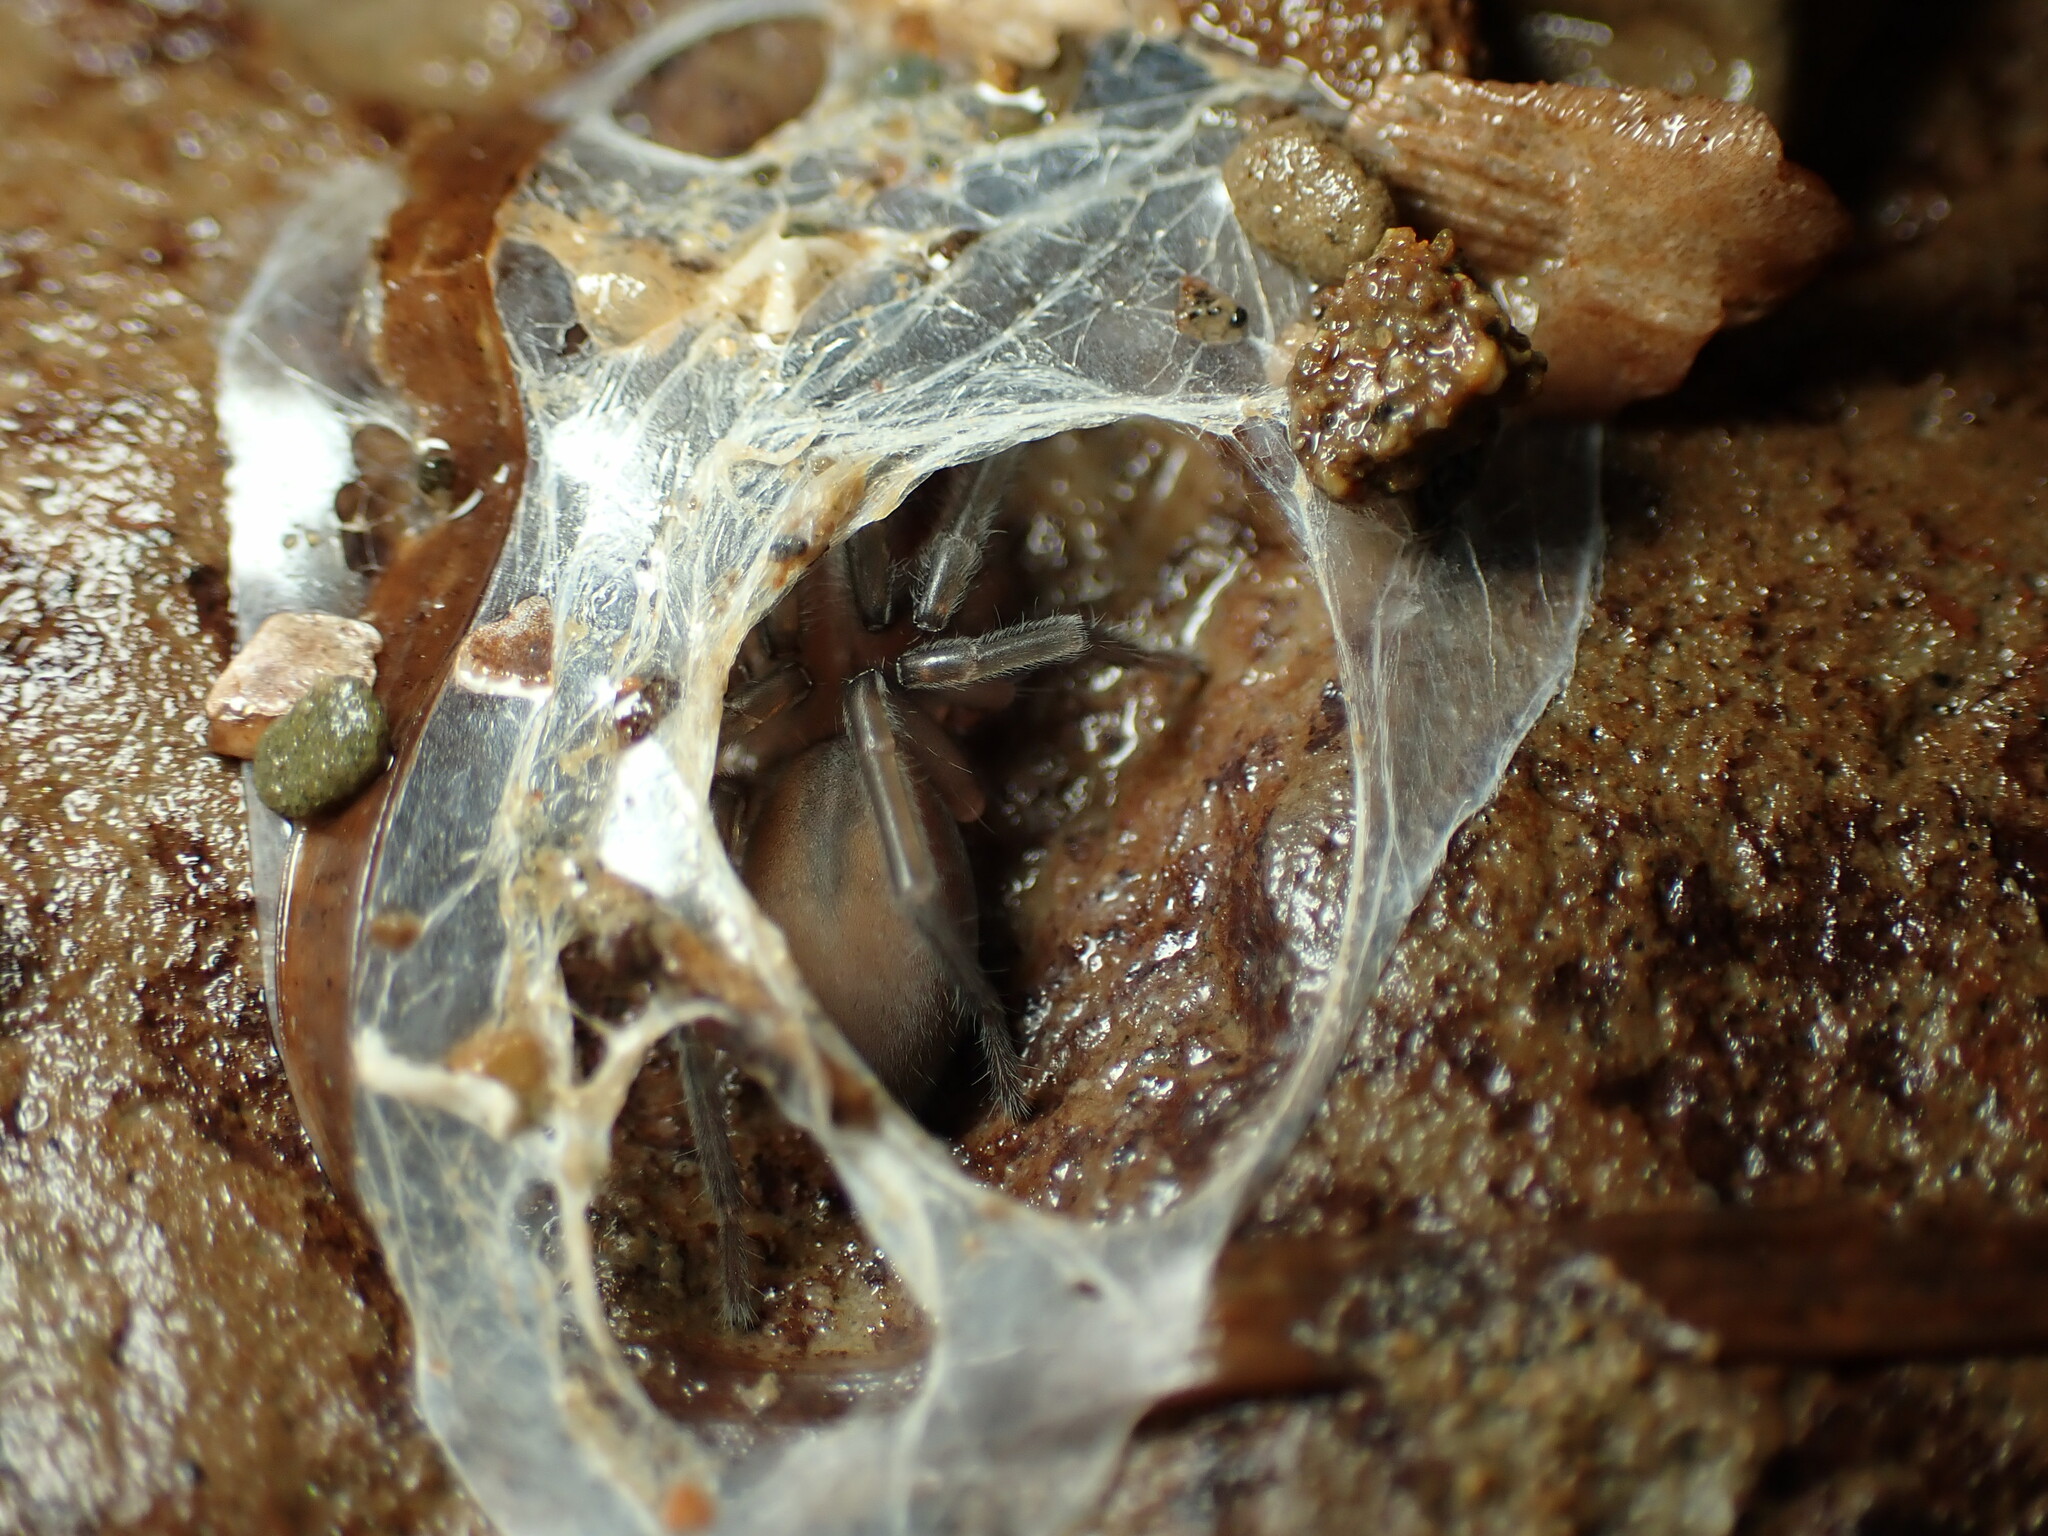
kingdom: Animalia
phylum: Arthropoda
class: Arachnida
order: Araneae
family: Desidae
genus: Desis
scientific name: Desis marina
